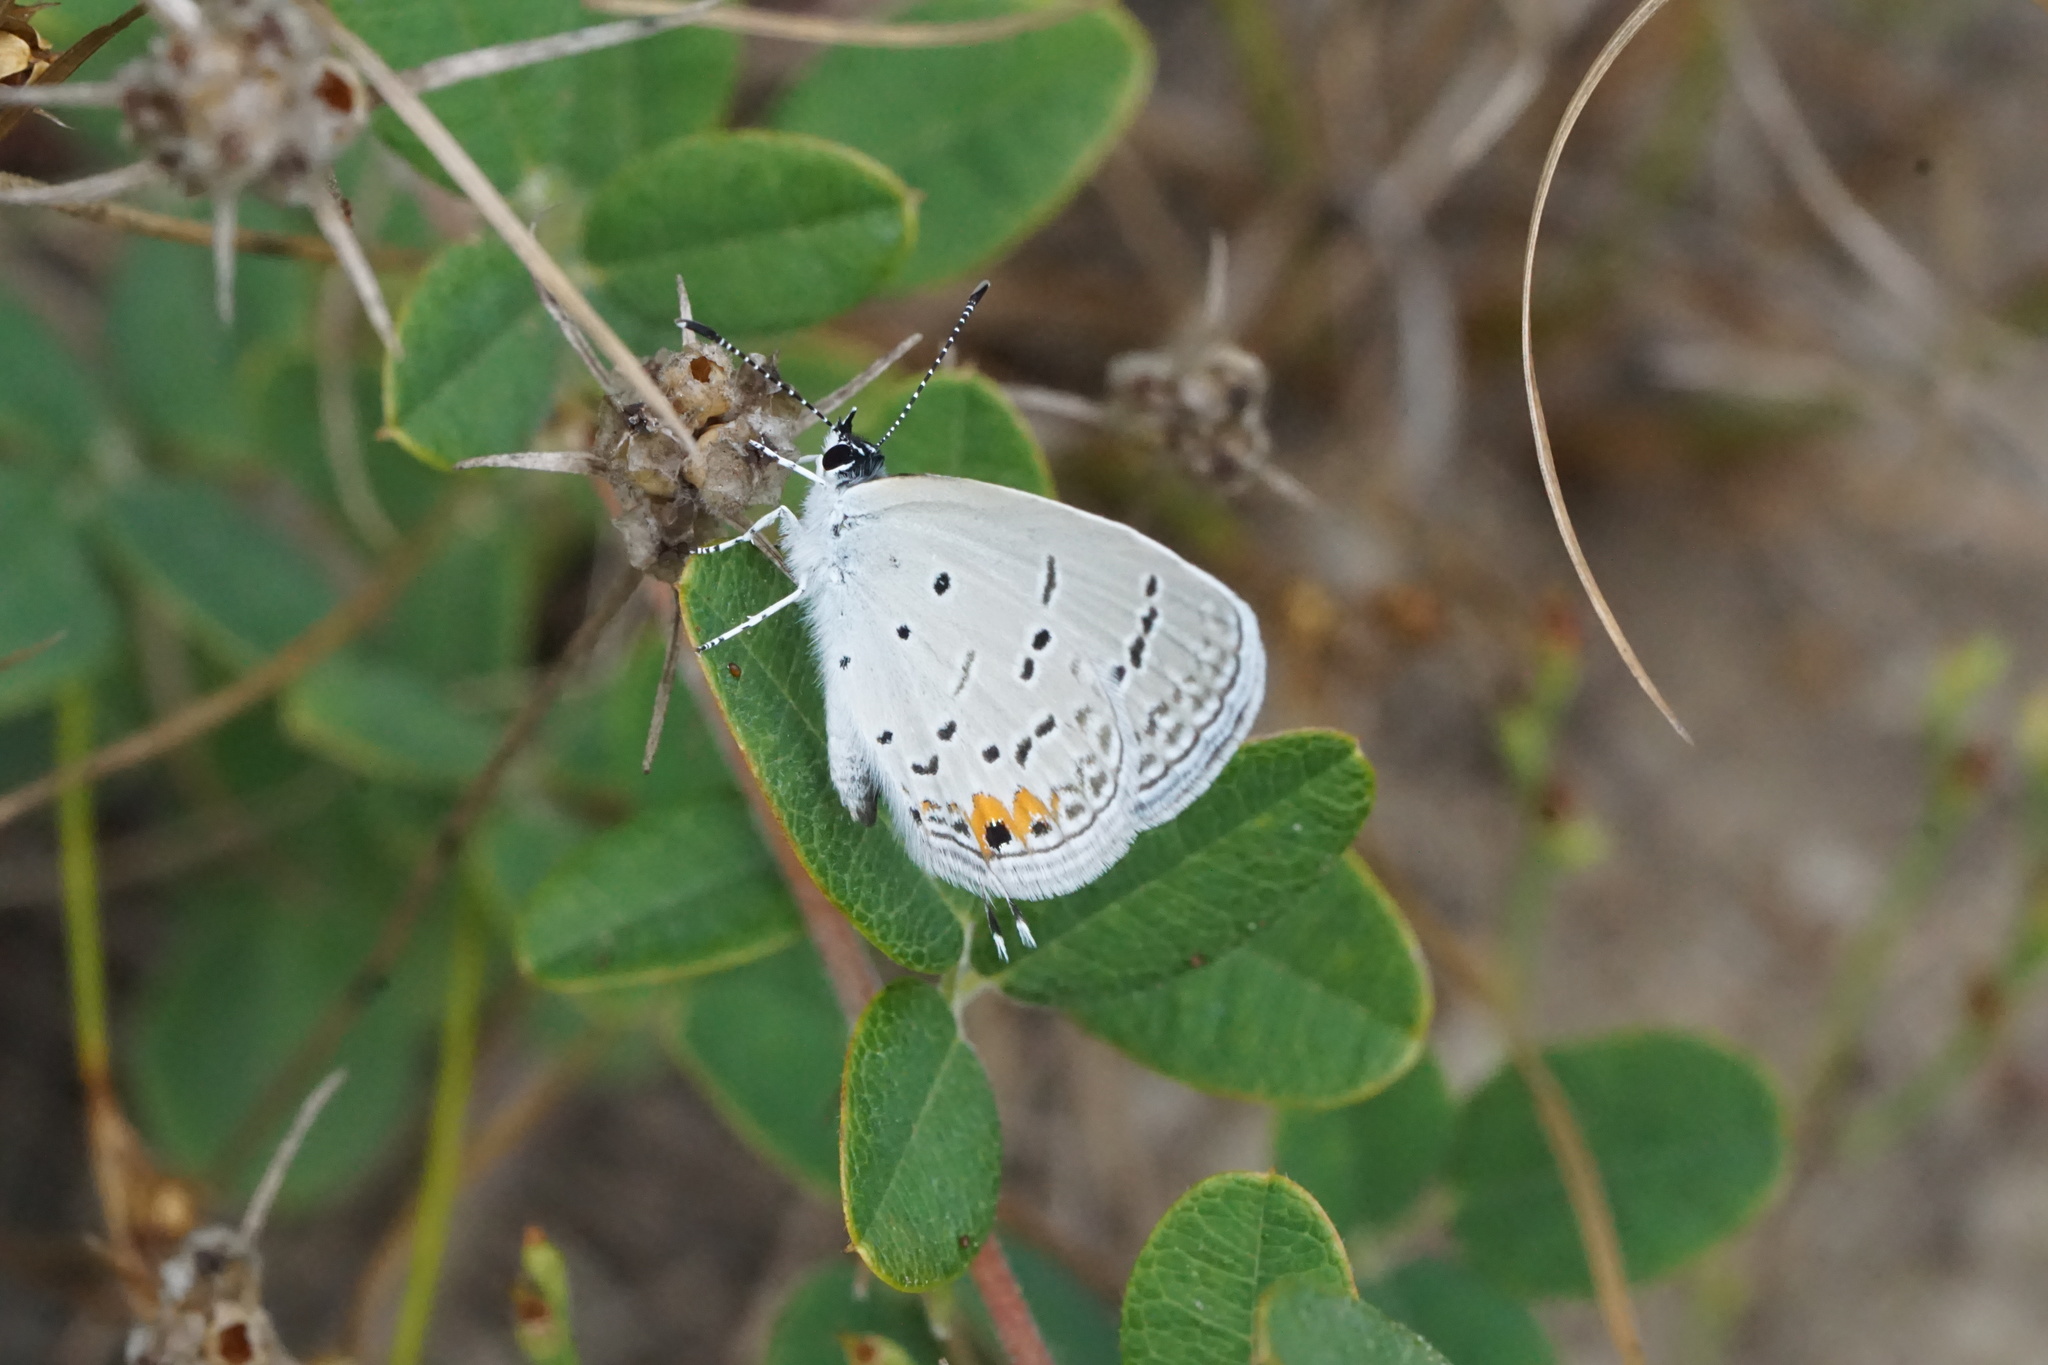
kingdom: Animalia
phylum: Arthropoda
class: Insecta
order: Lepidoptera
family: Lycaenidae
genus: Elkalyce
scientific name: Elkalyce comyntas
